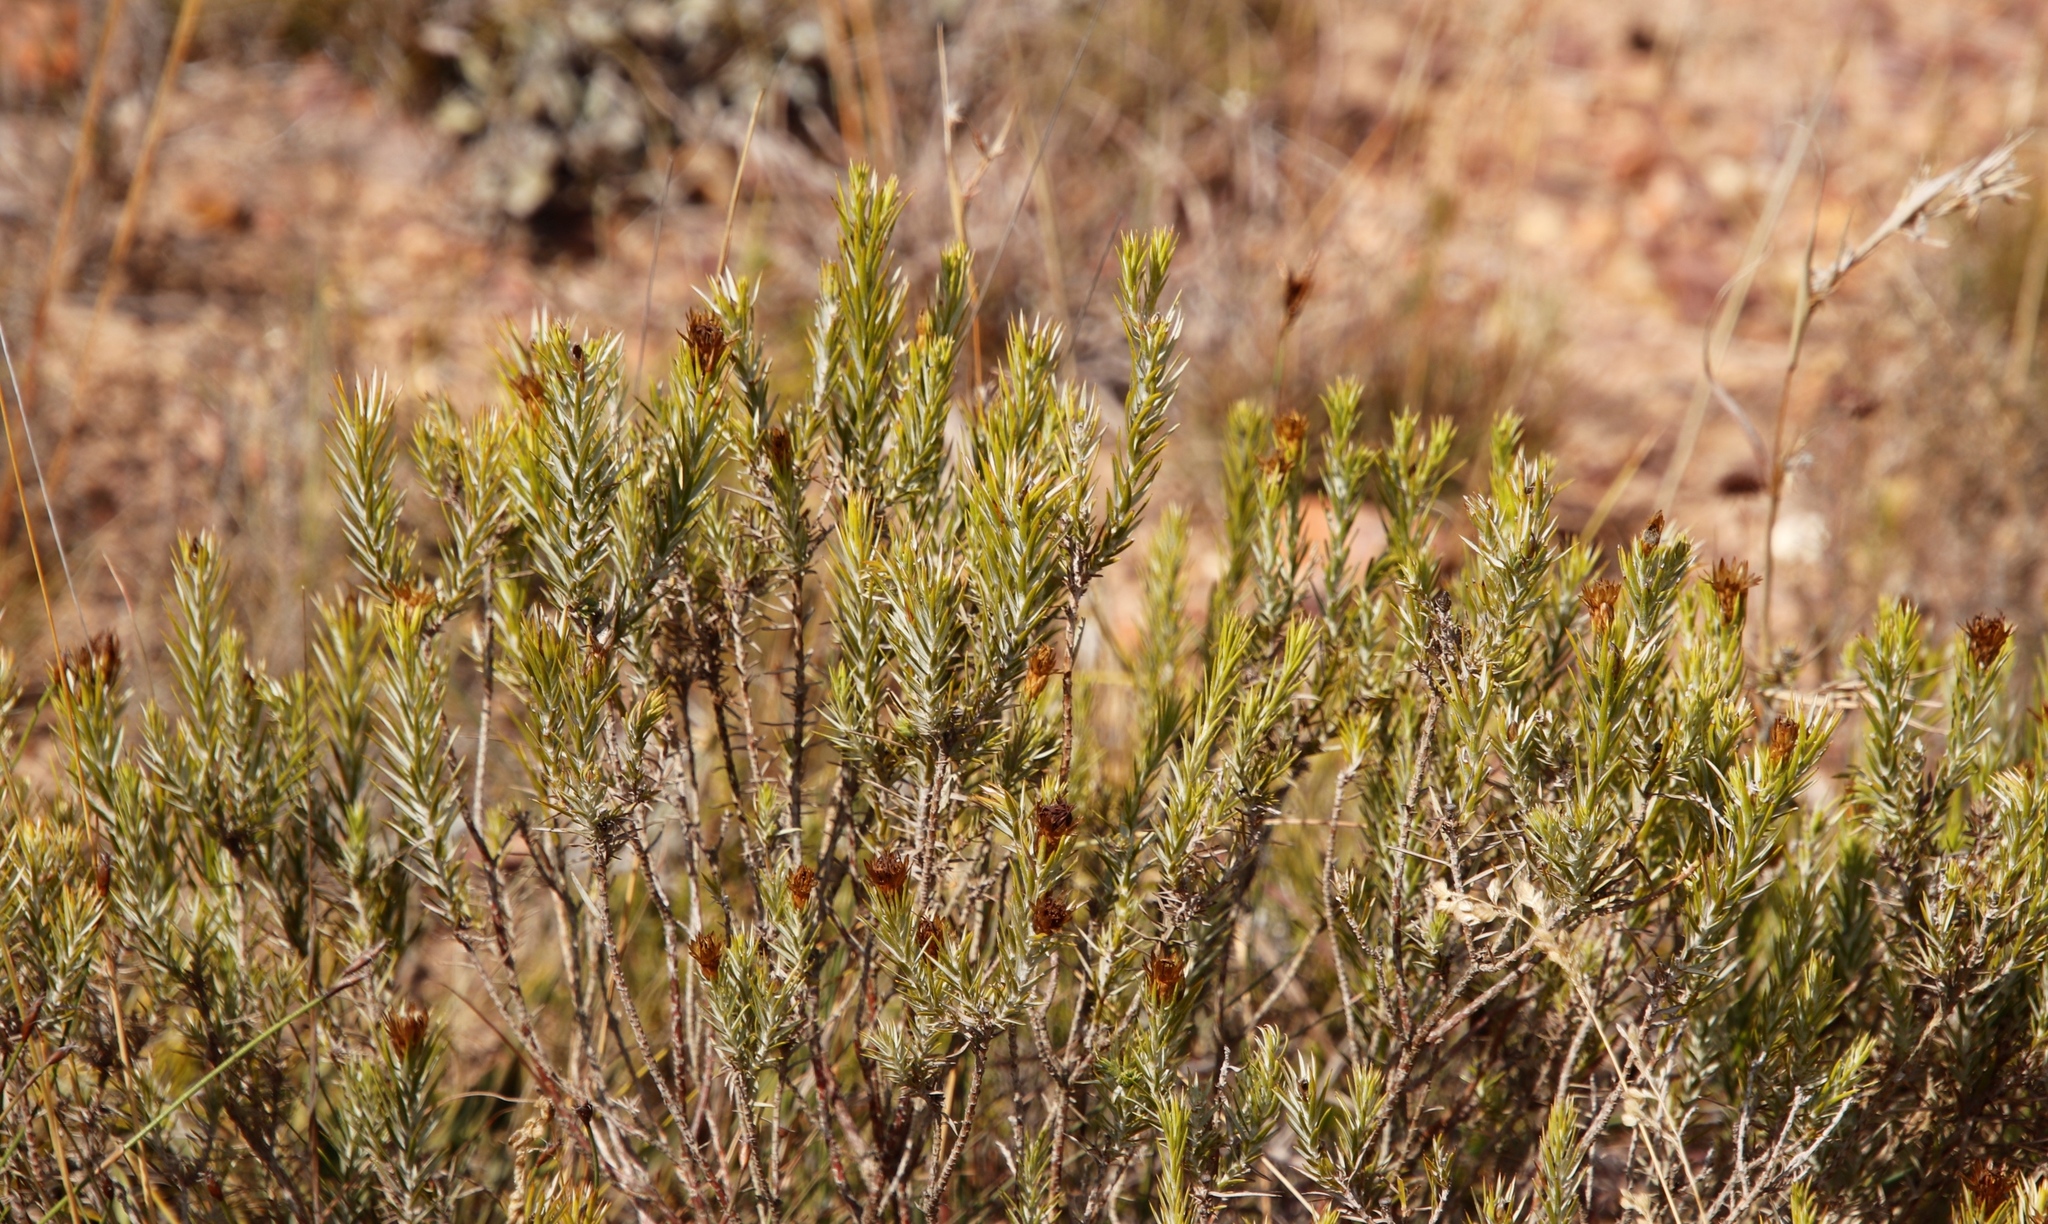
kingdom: Plantae
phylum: Tracheophyta
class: Magnoliopsida
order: Asterales
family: Asteraceae
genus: Oedera
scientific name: Oedera pungens
